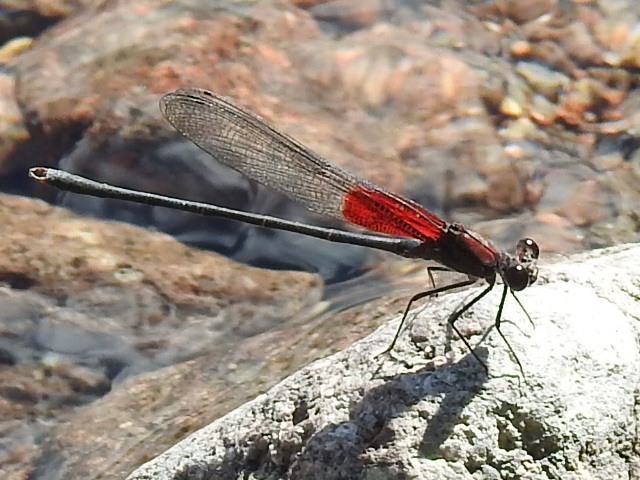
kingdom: Animalia
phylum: Arthropoda
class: Insecta
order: Odonata
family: Calopterygidae
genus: Hetaerina
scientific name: Hetaerina americana
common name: American rubyspot
